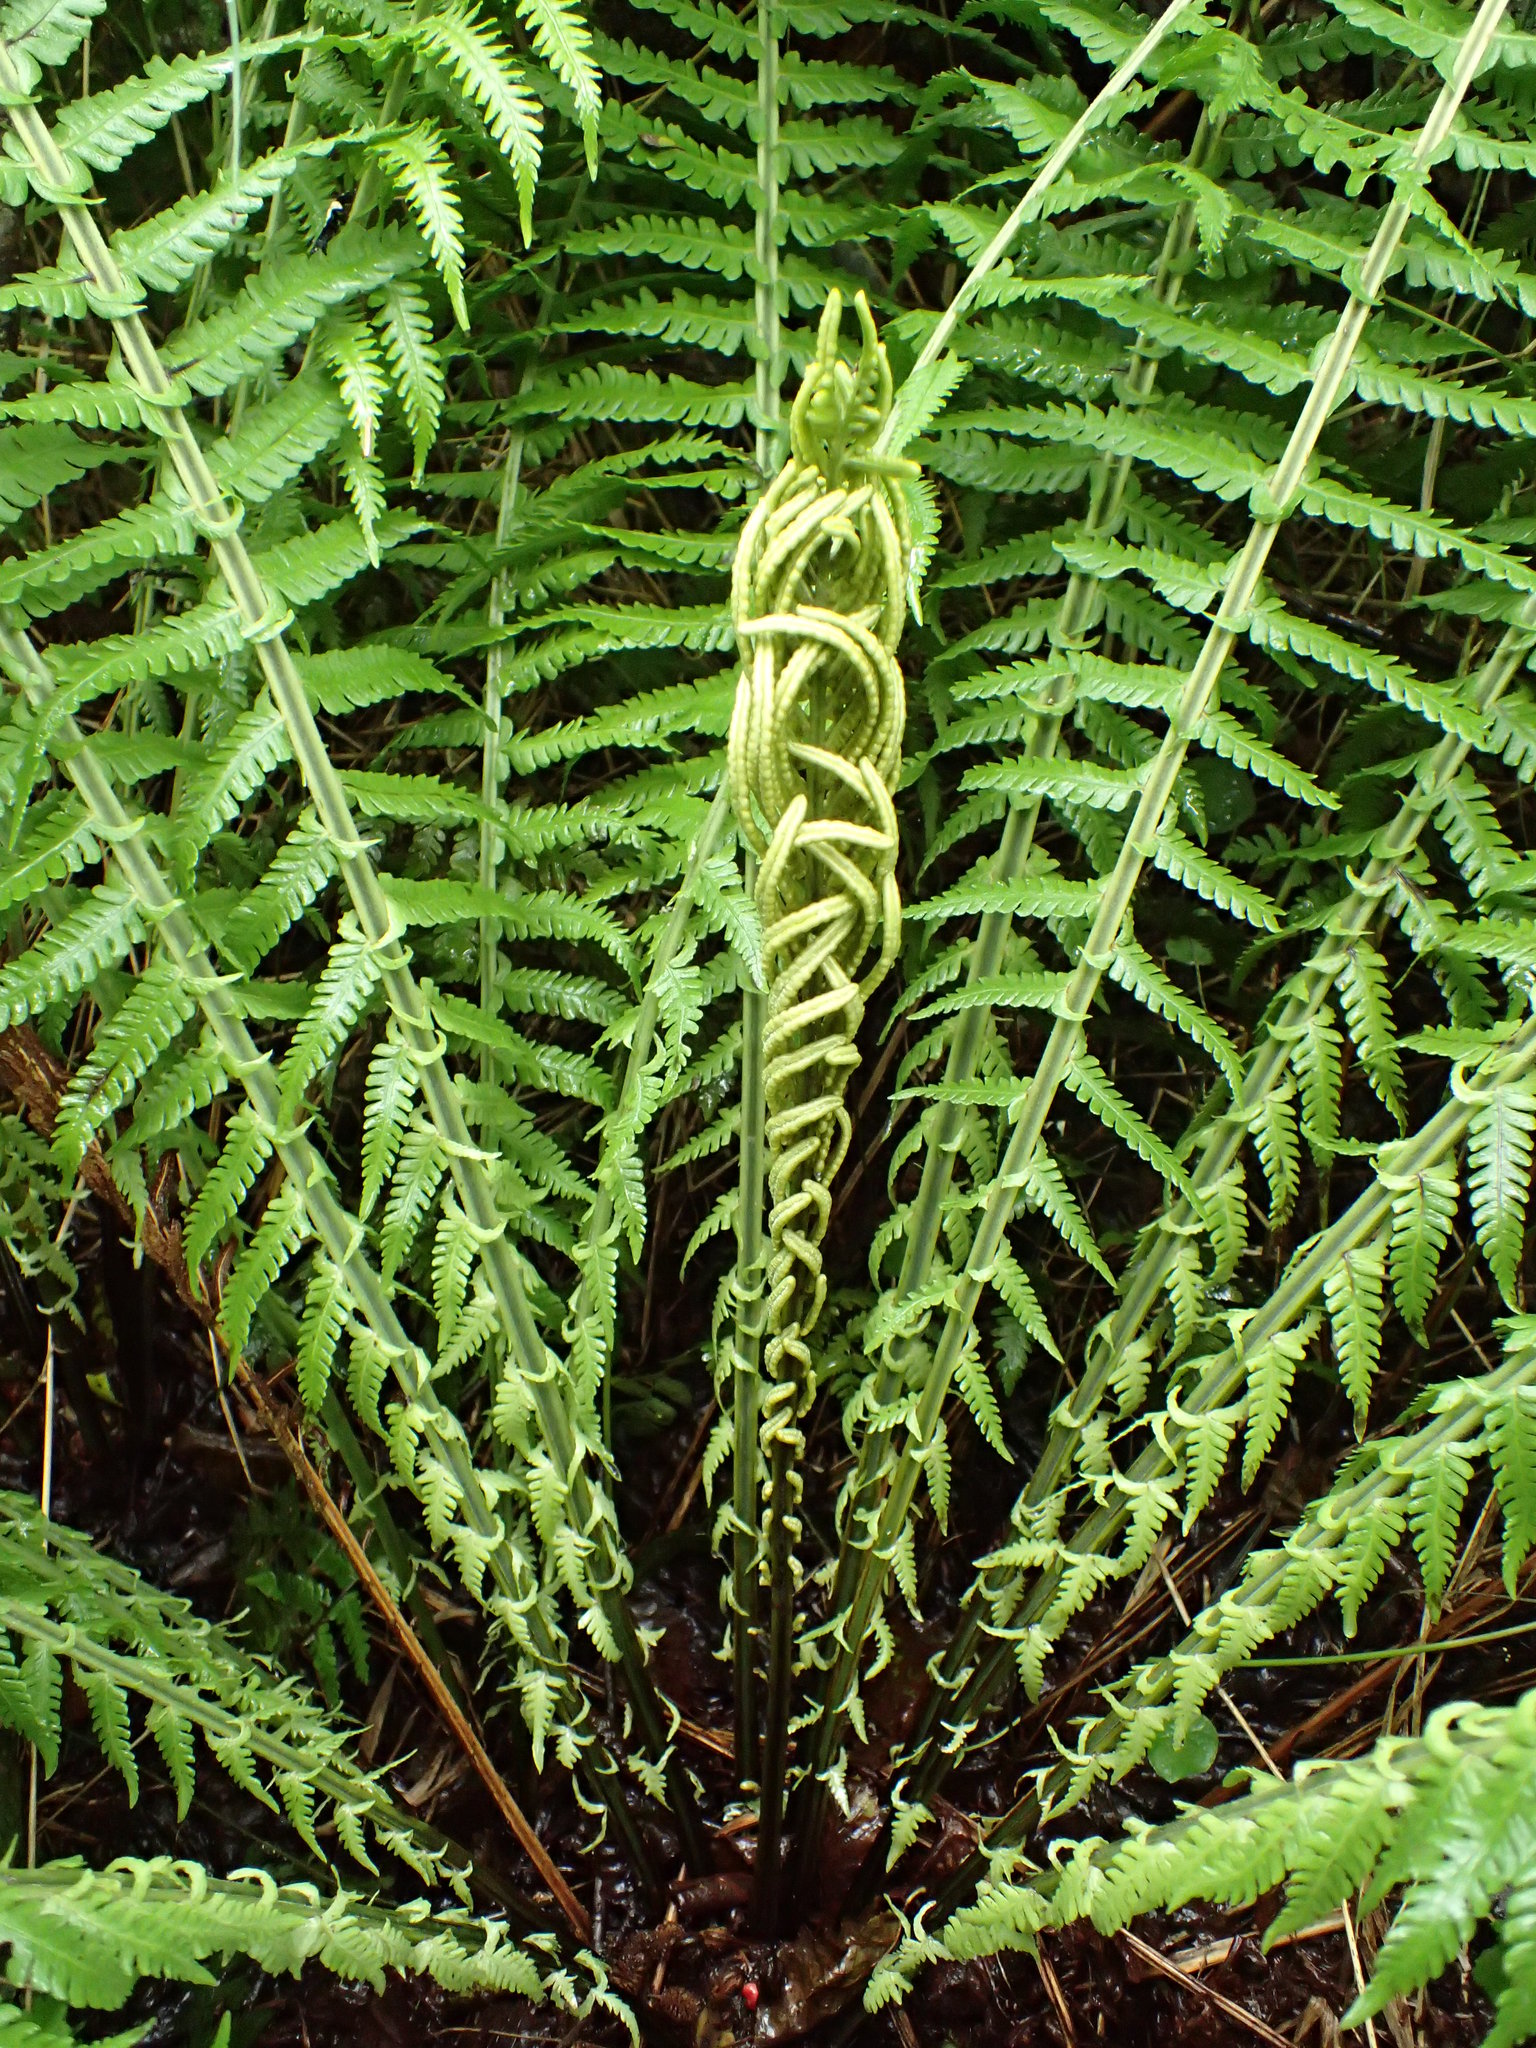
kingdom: Plantae
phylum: Tracheophyta
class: Polypodiopsida
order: Polypodiales
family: Onocleaceae
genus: Matteuccia
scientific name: Matteuccia struthiopteris
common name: Ostrich fern
